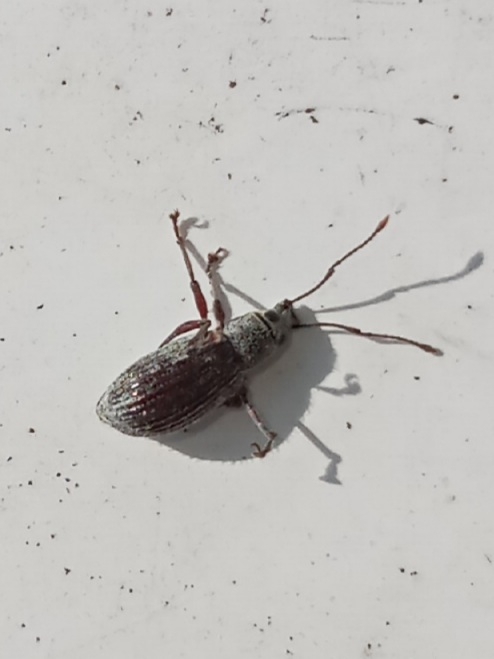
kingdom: Animalia
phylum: Arthropoda
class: Insecta
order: Coleoptera
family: Curculionidae
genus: Cyrtepistomus
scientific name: Cyrtepistomus castaneus
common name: Weevil
